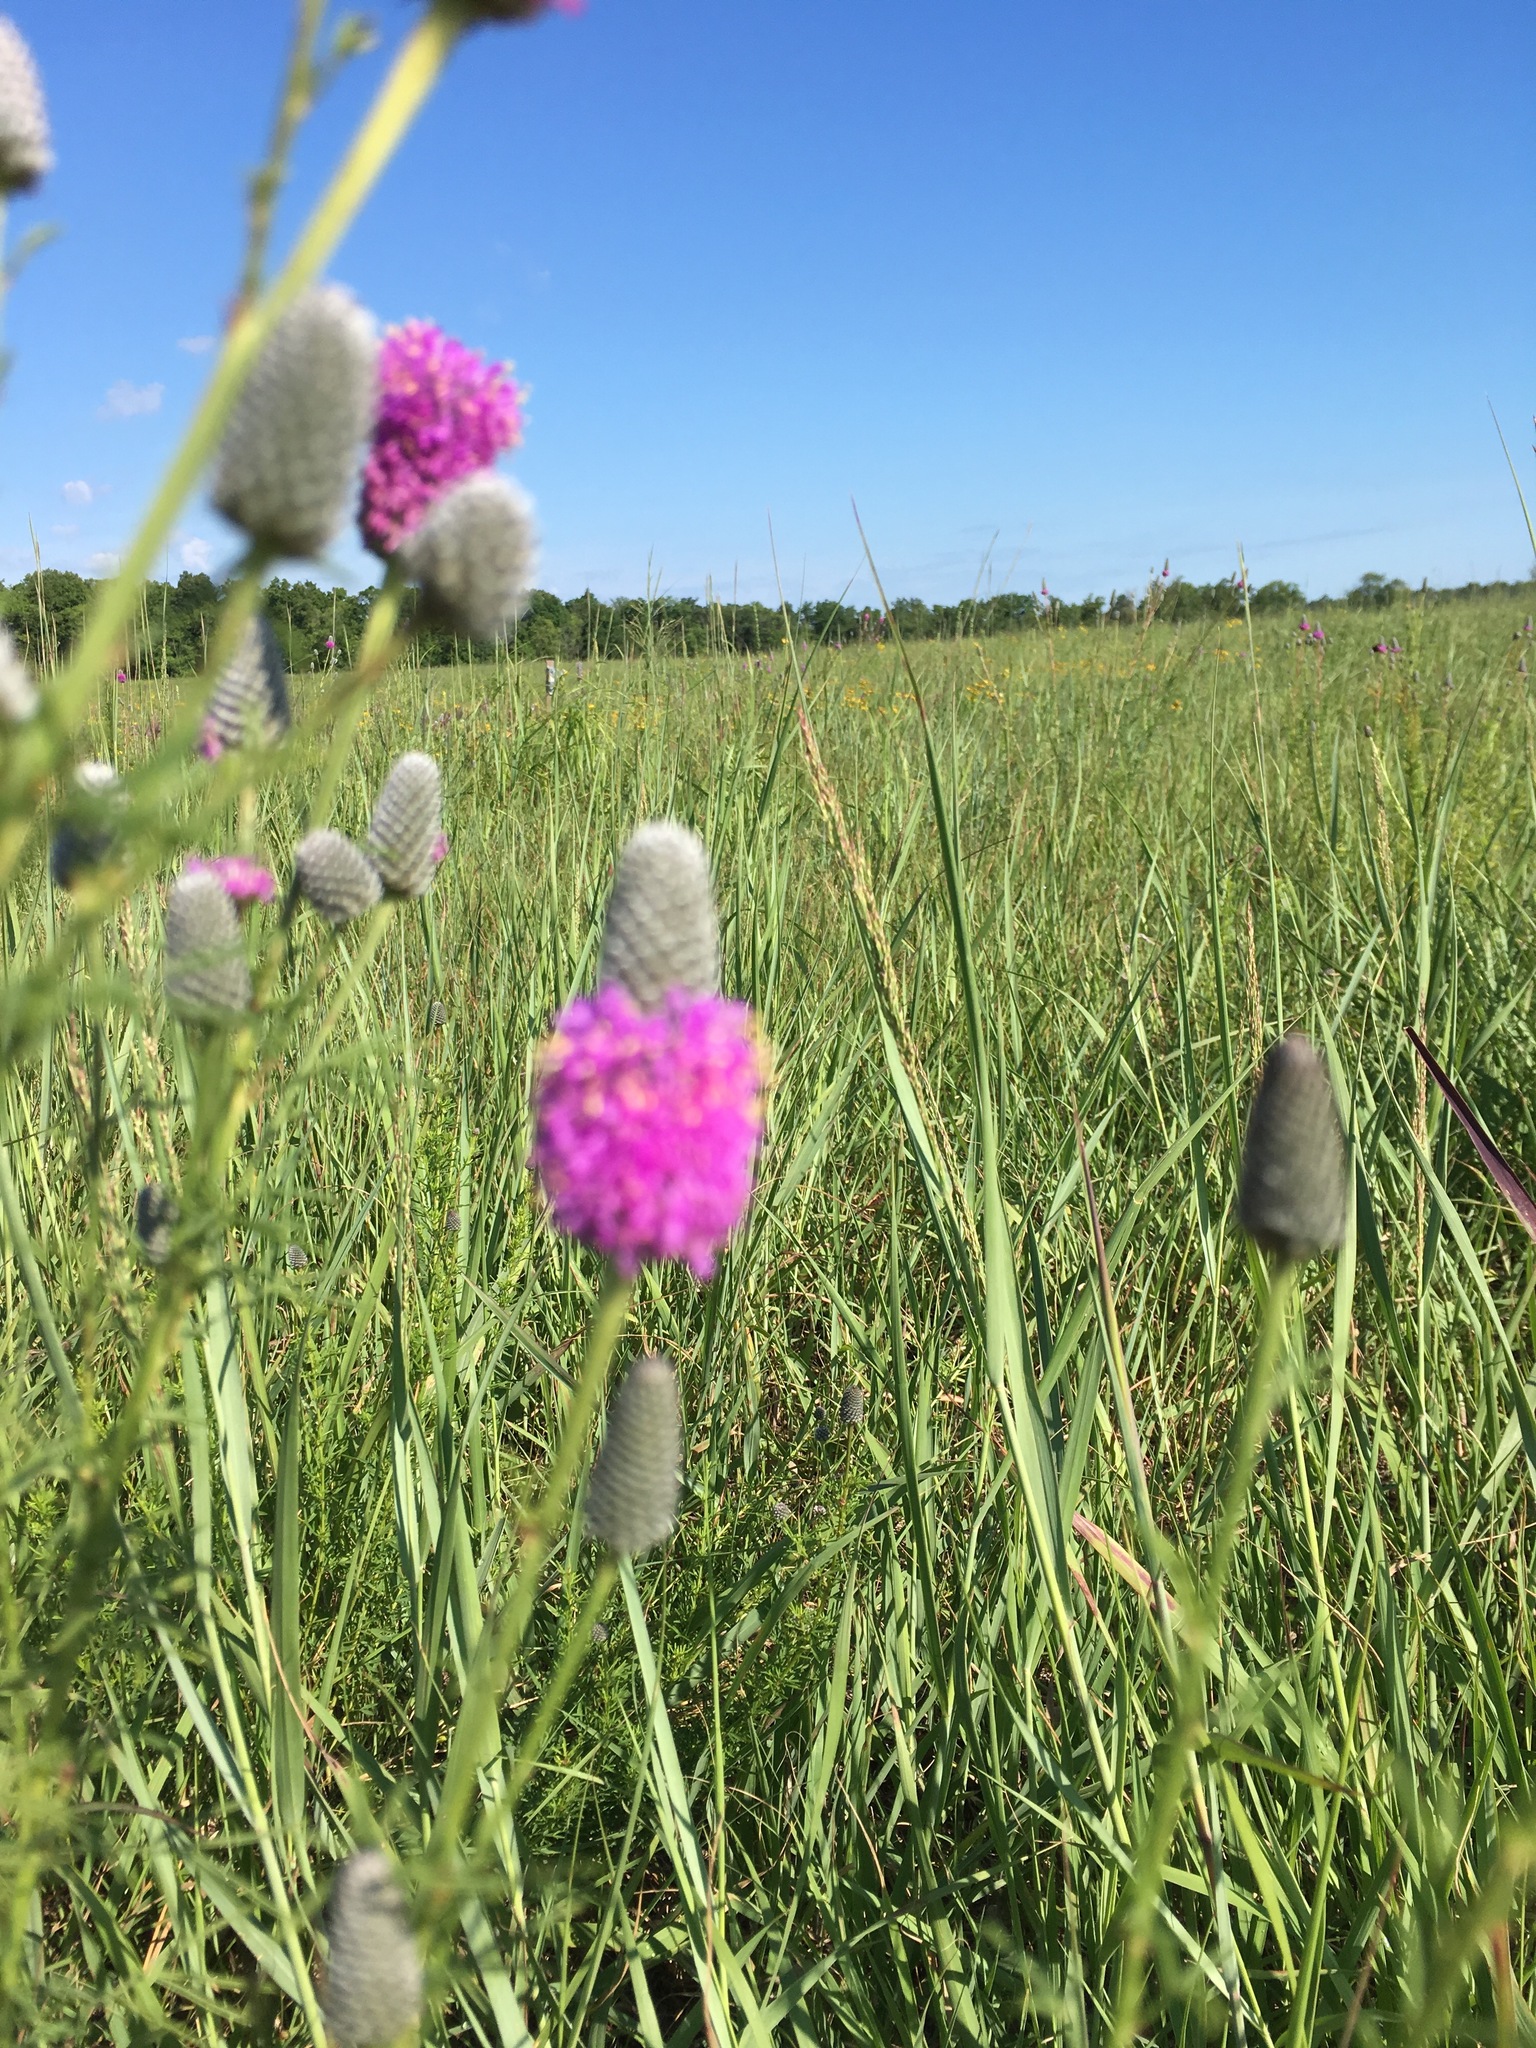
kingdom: Plantae
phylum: Tracheophyta
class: Magnoliopsida
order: Fabales
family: Fabaceae
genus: Dalea
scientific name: Dalea purpurea
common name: Purple prairie-clover
